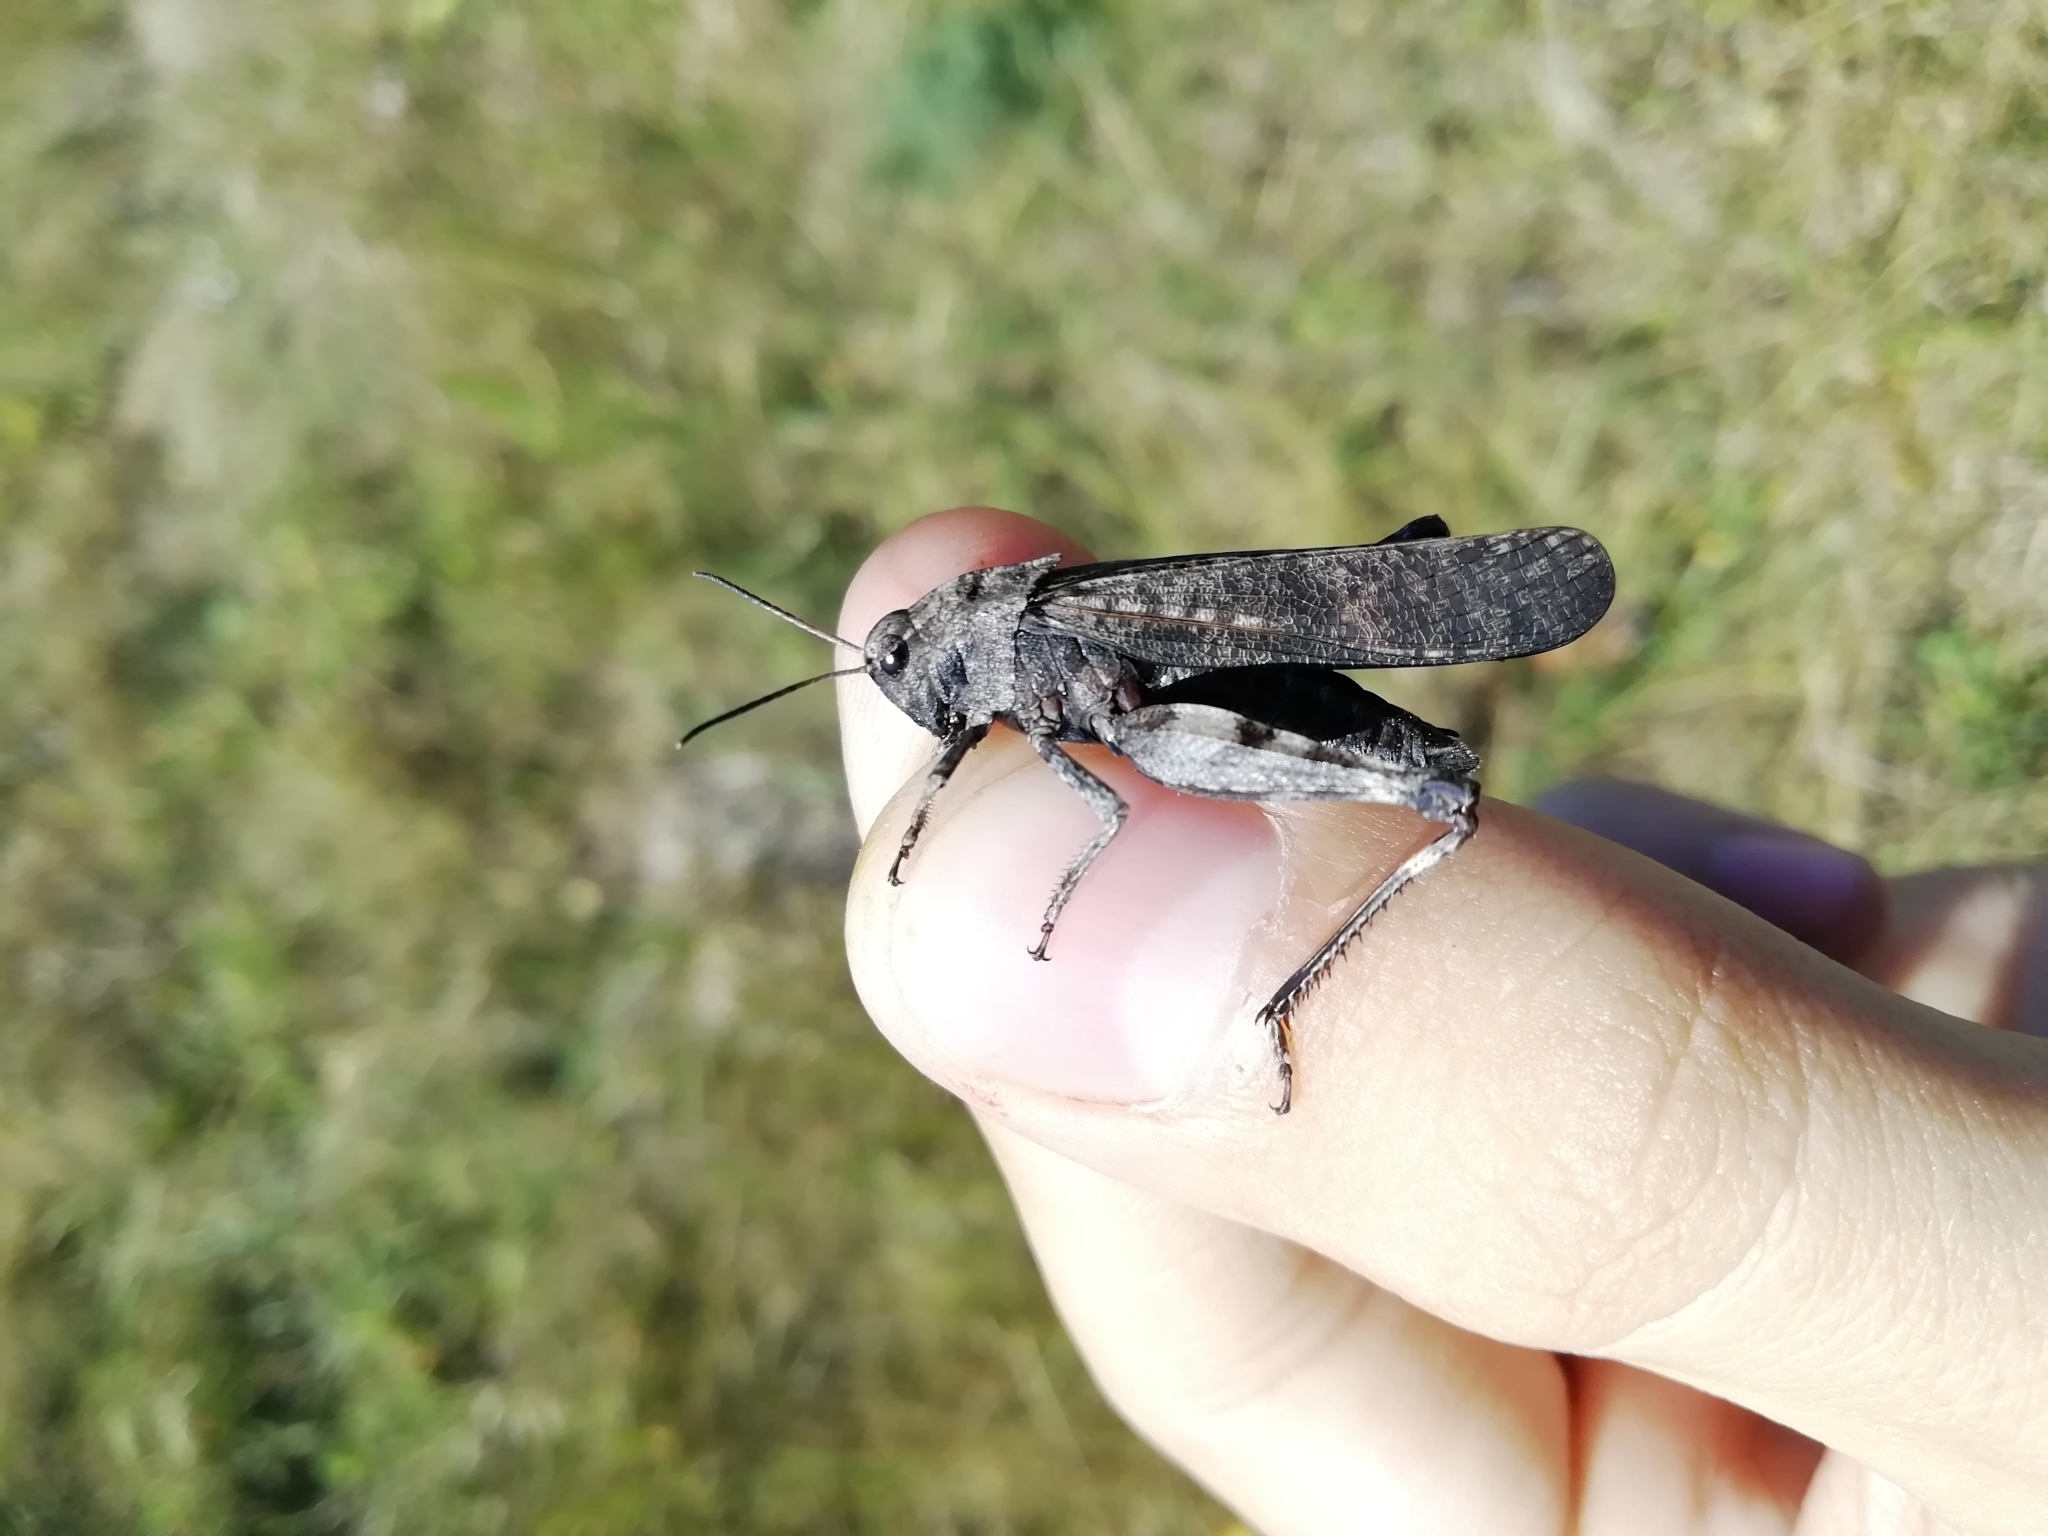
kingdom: Animalia
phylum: Arthropoda
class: Insecta
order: Orthoptera
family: Acrididae
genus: Psophus
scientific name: Psophus stridulus
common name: Rattle grasshopper
